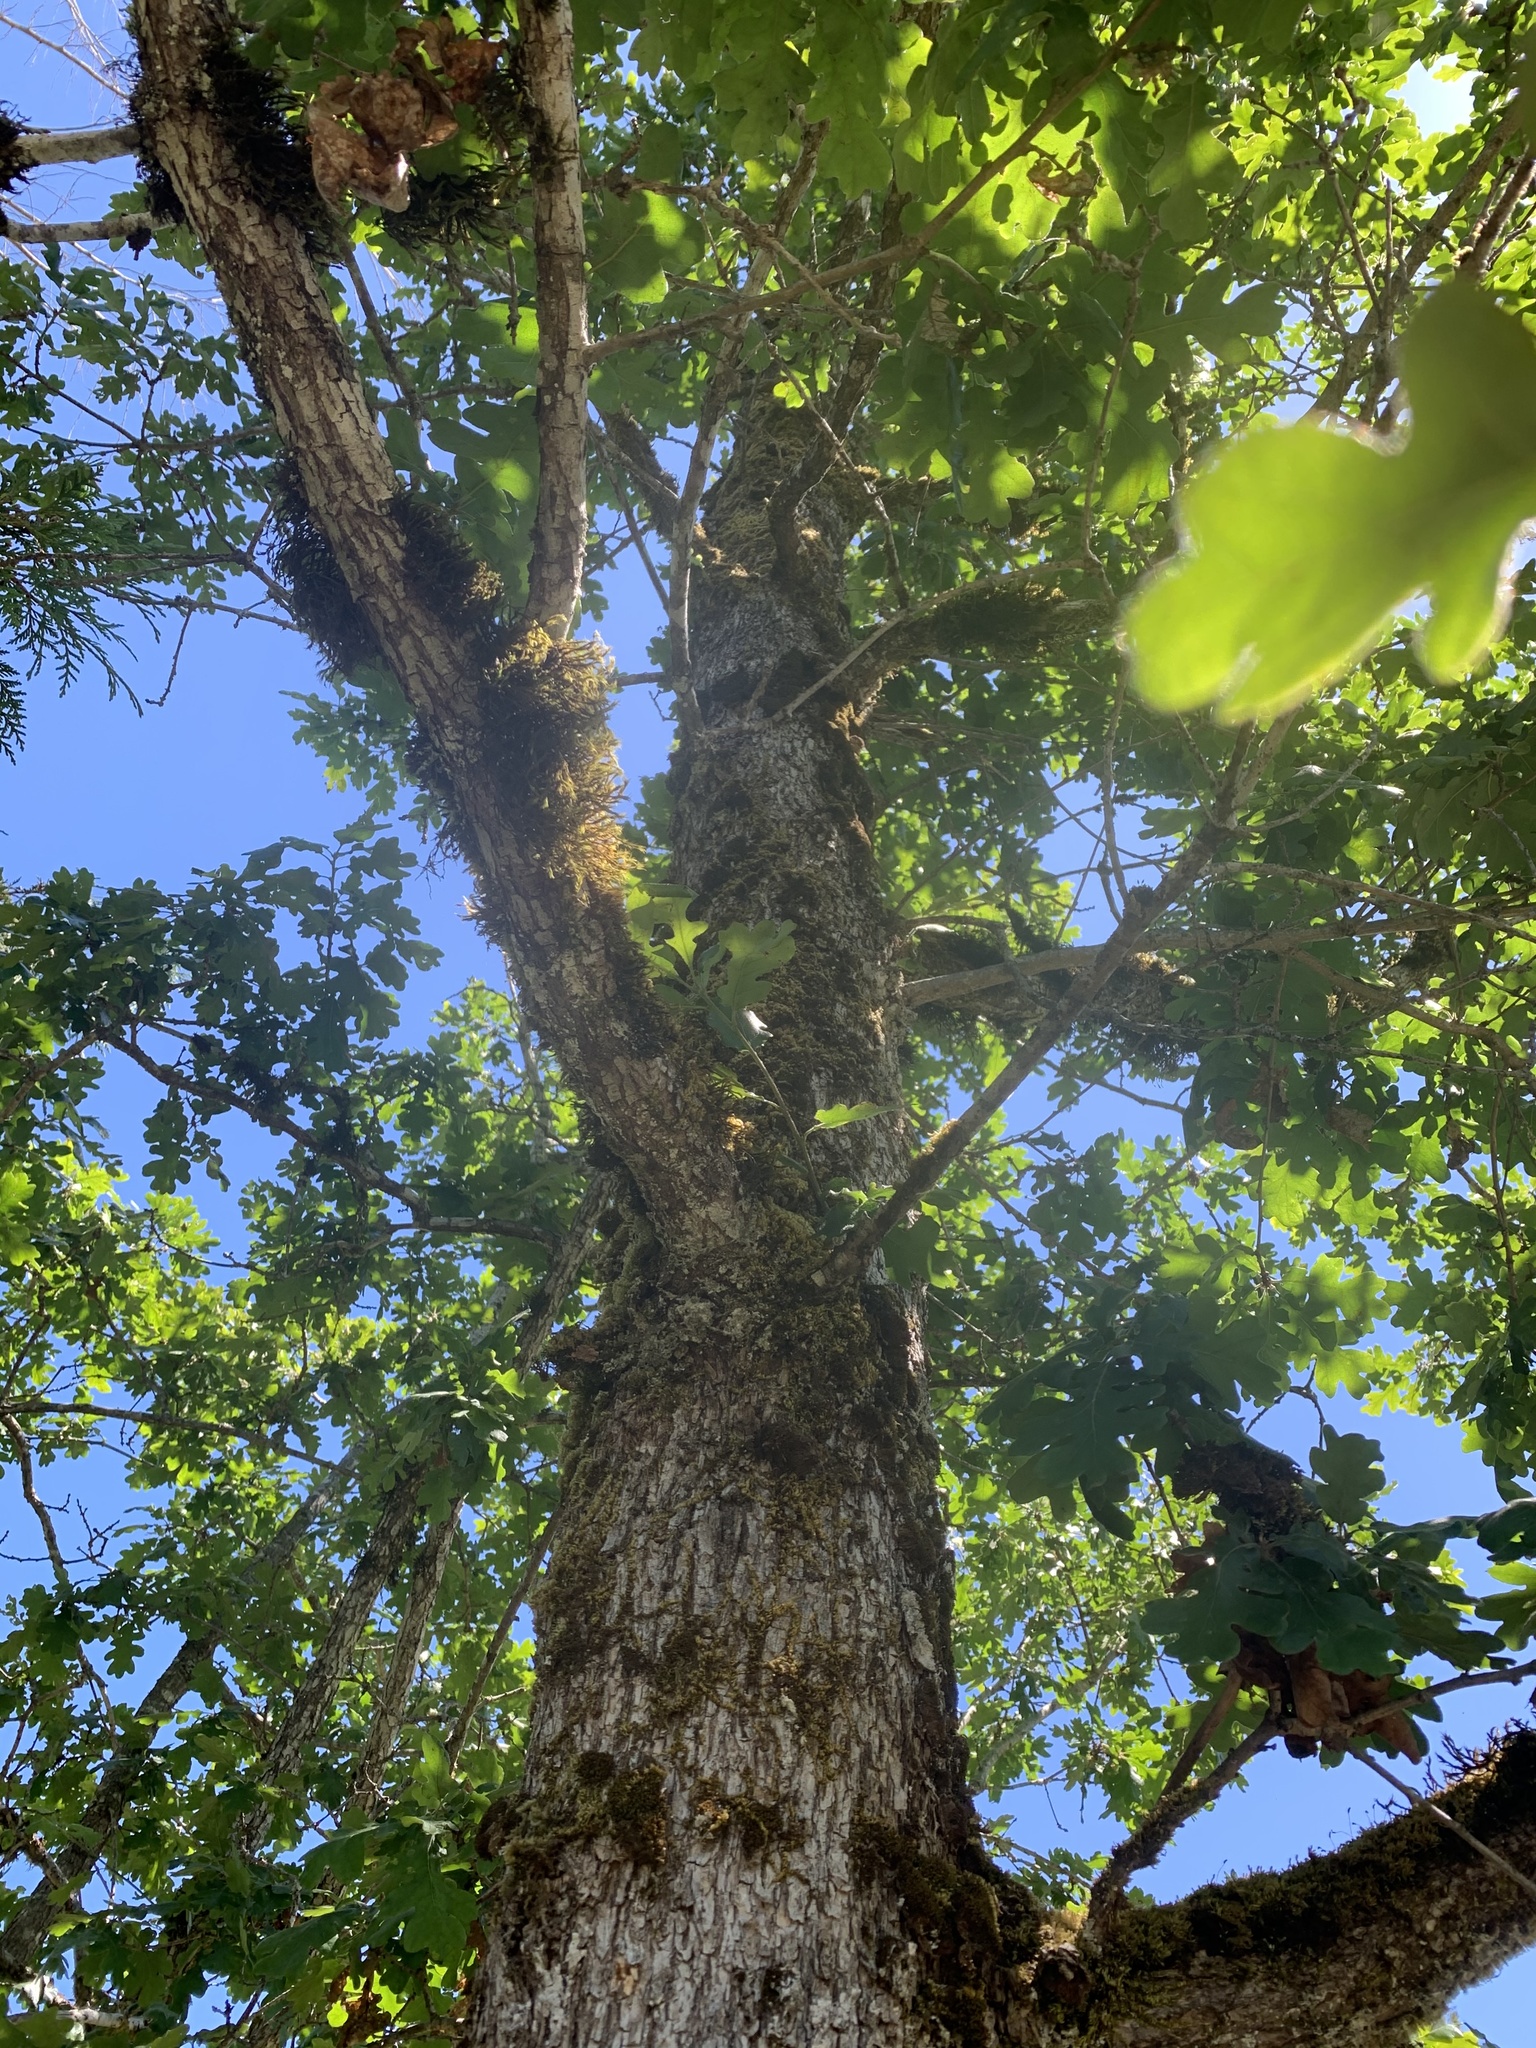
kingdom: Plantae
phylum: Tracheophyta
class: Magnoliopsida
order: Fagales
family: Fagaceae
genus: Quercus
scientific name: Quercus garryana
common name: Garry oak
